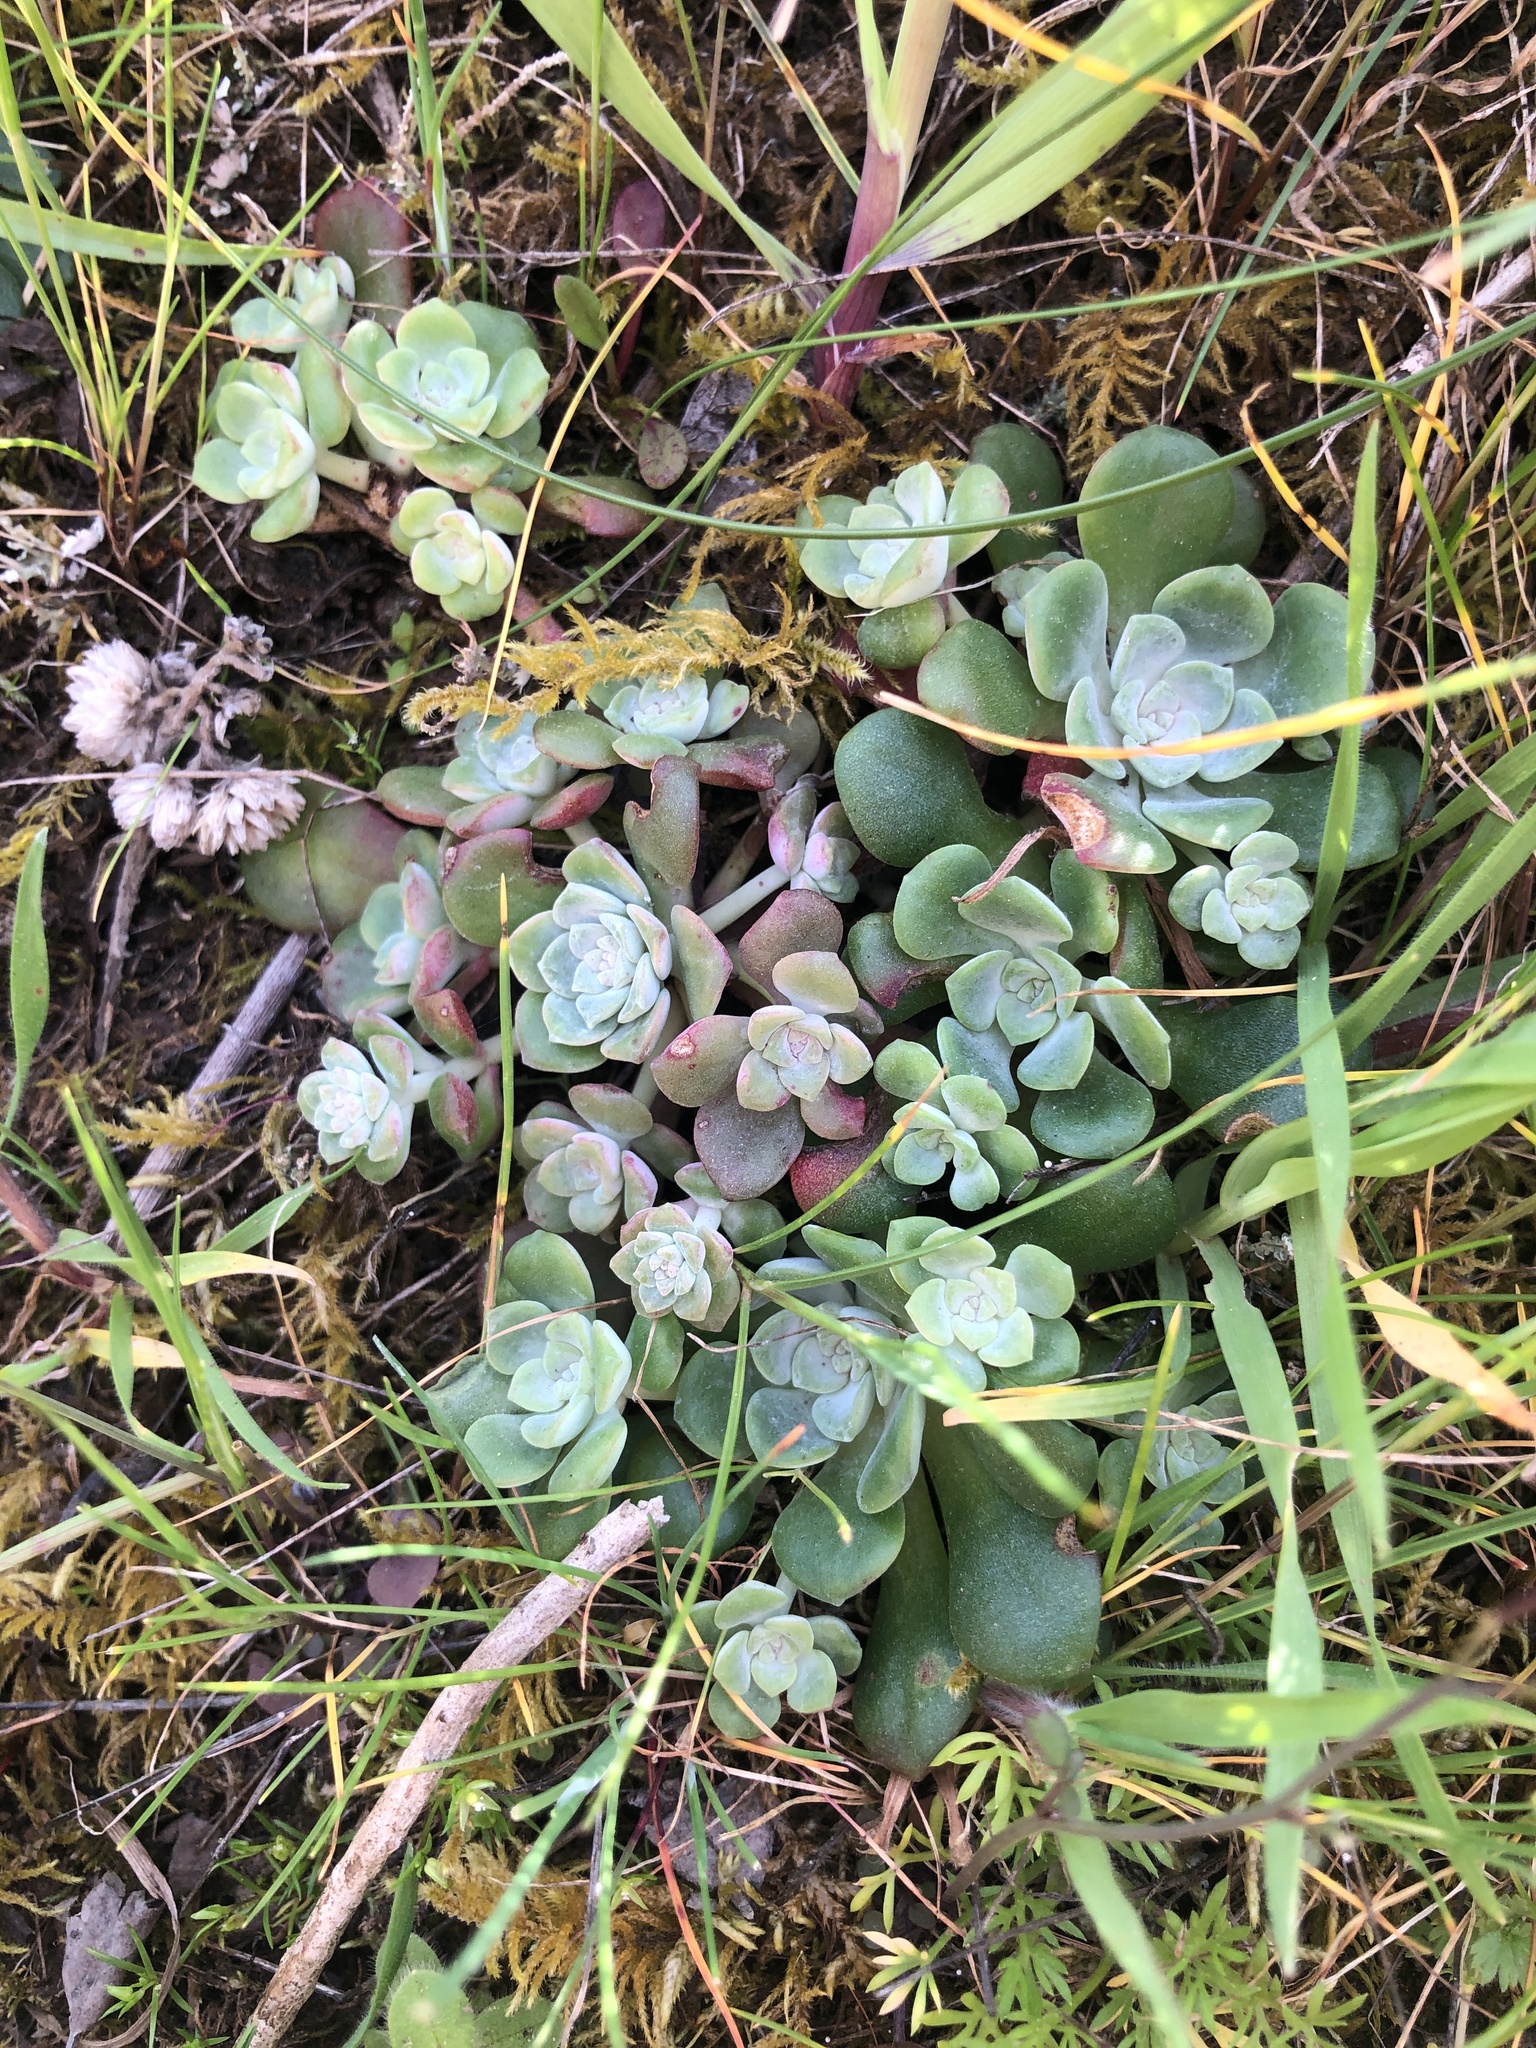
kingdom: Plantae
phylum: Tracheophyta
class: Magnoliopsida
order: Saxifragales
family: Crassulaceae
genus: Sedum
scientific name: Sedum spathulifolium
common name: Colorado stonecrop
